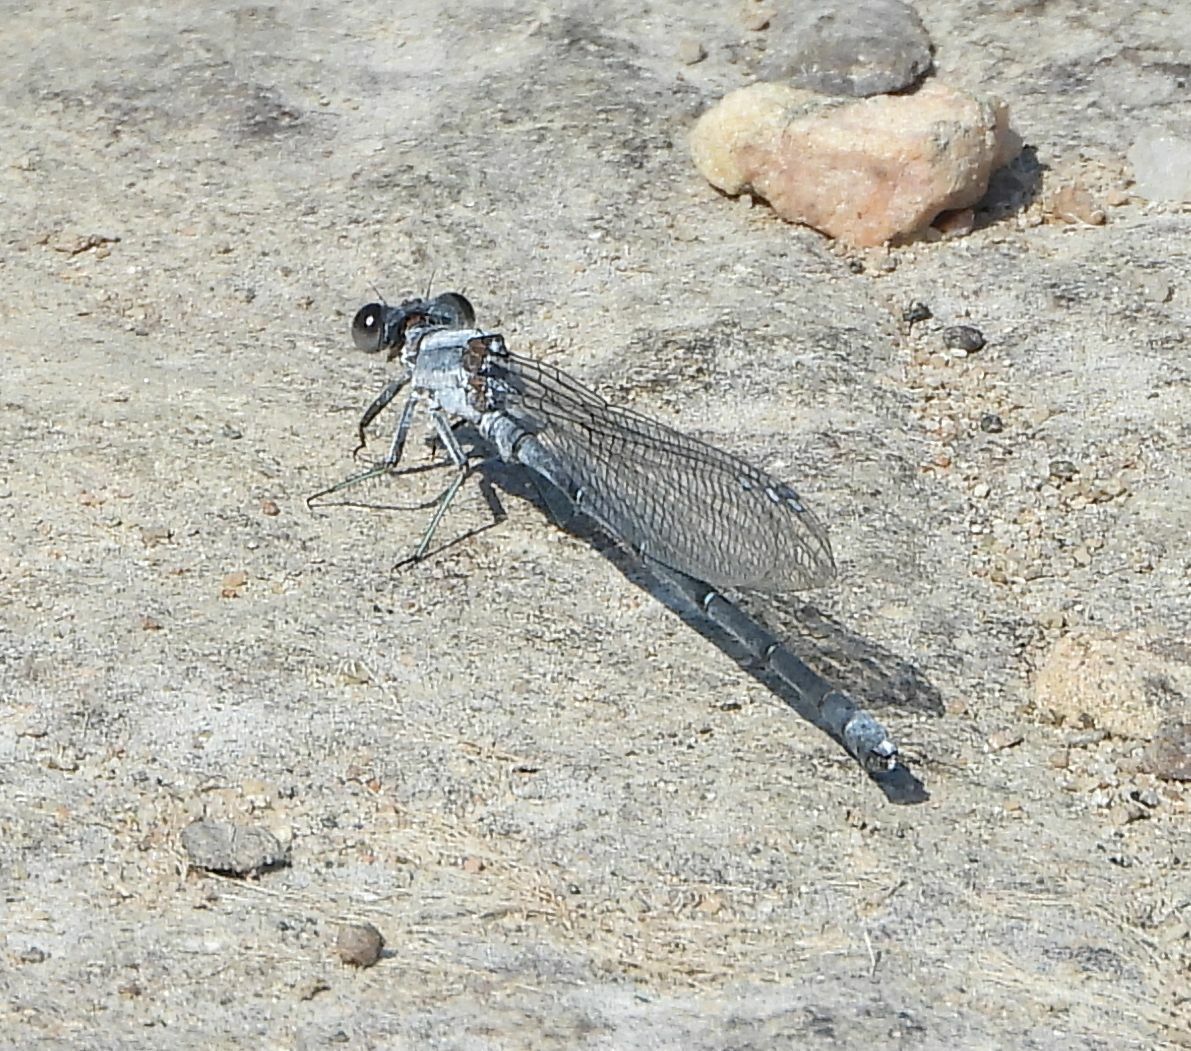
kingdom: Animalia
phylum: Arthropoda
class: Insecta
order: Odonata
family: Coenagrionidae
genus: Argia
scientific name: Argia moesta
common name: Powdered dancer
